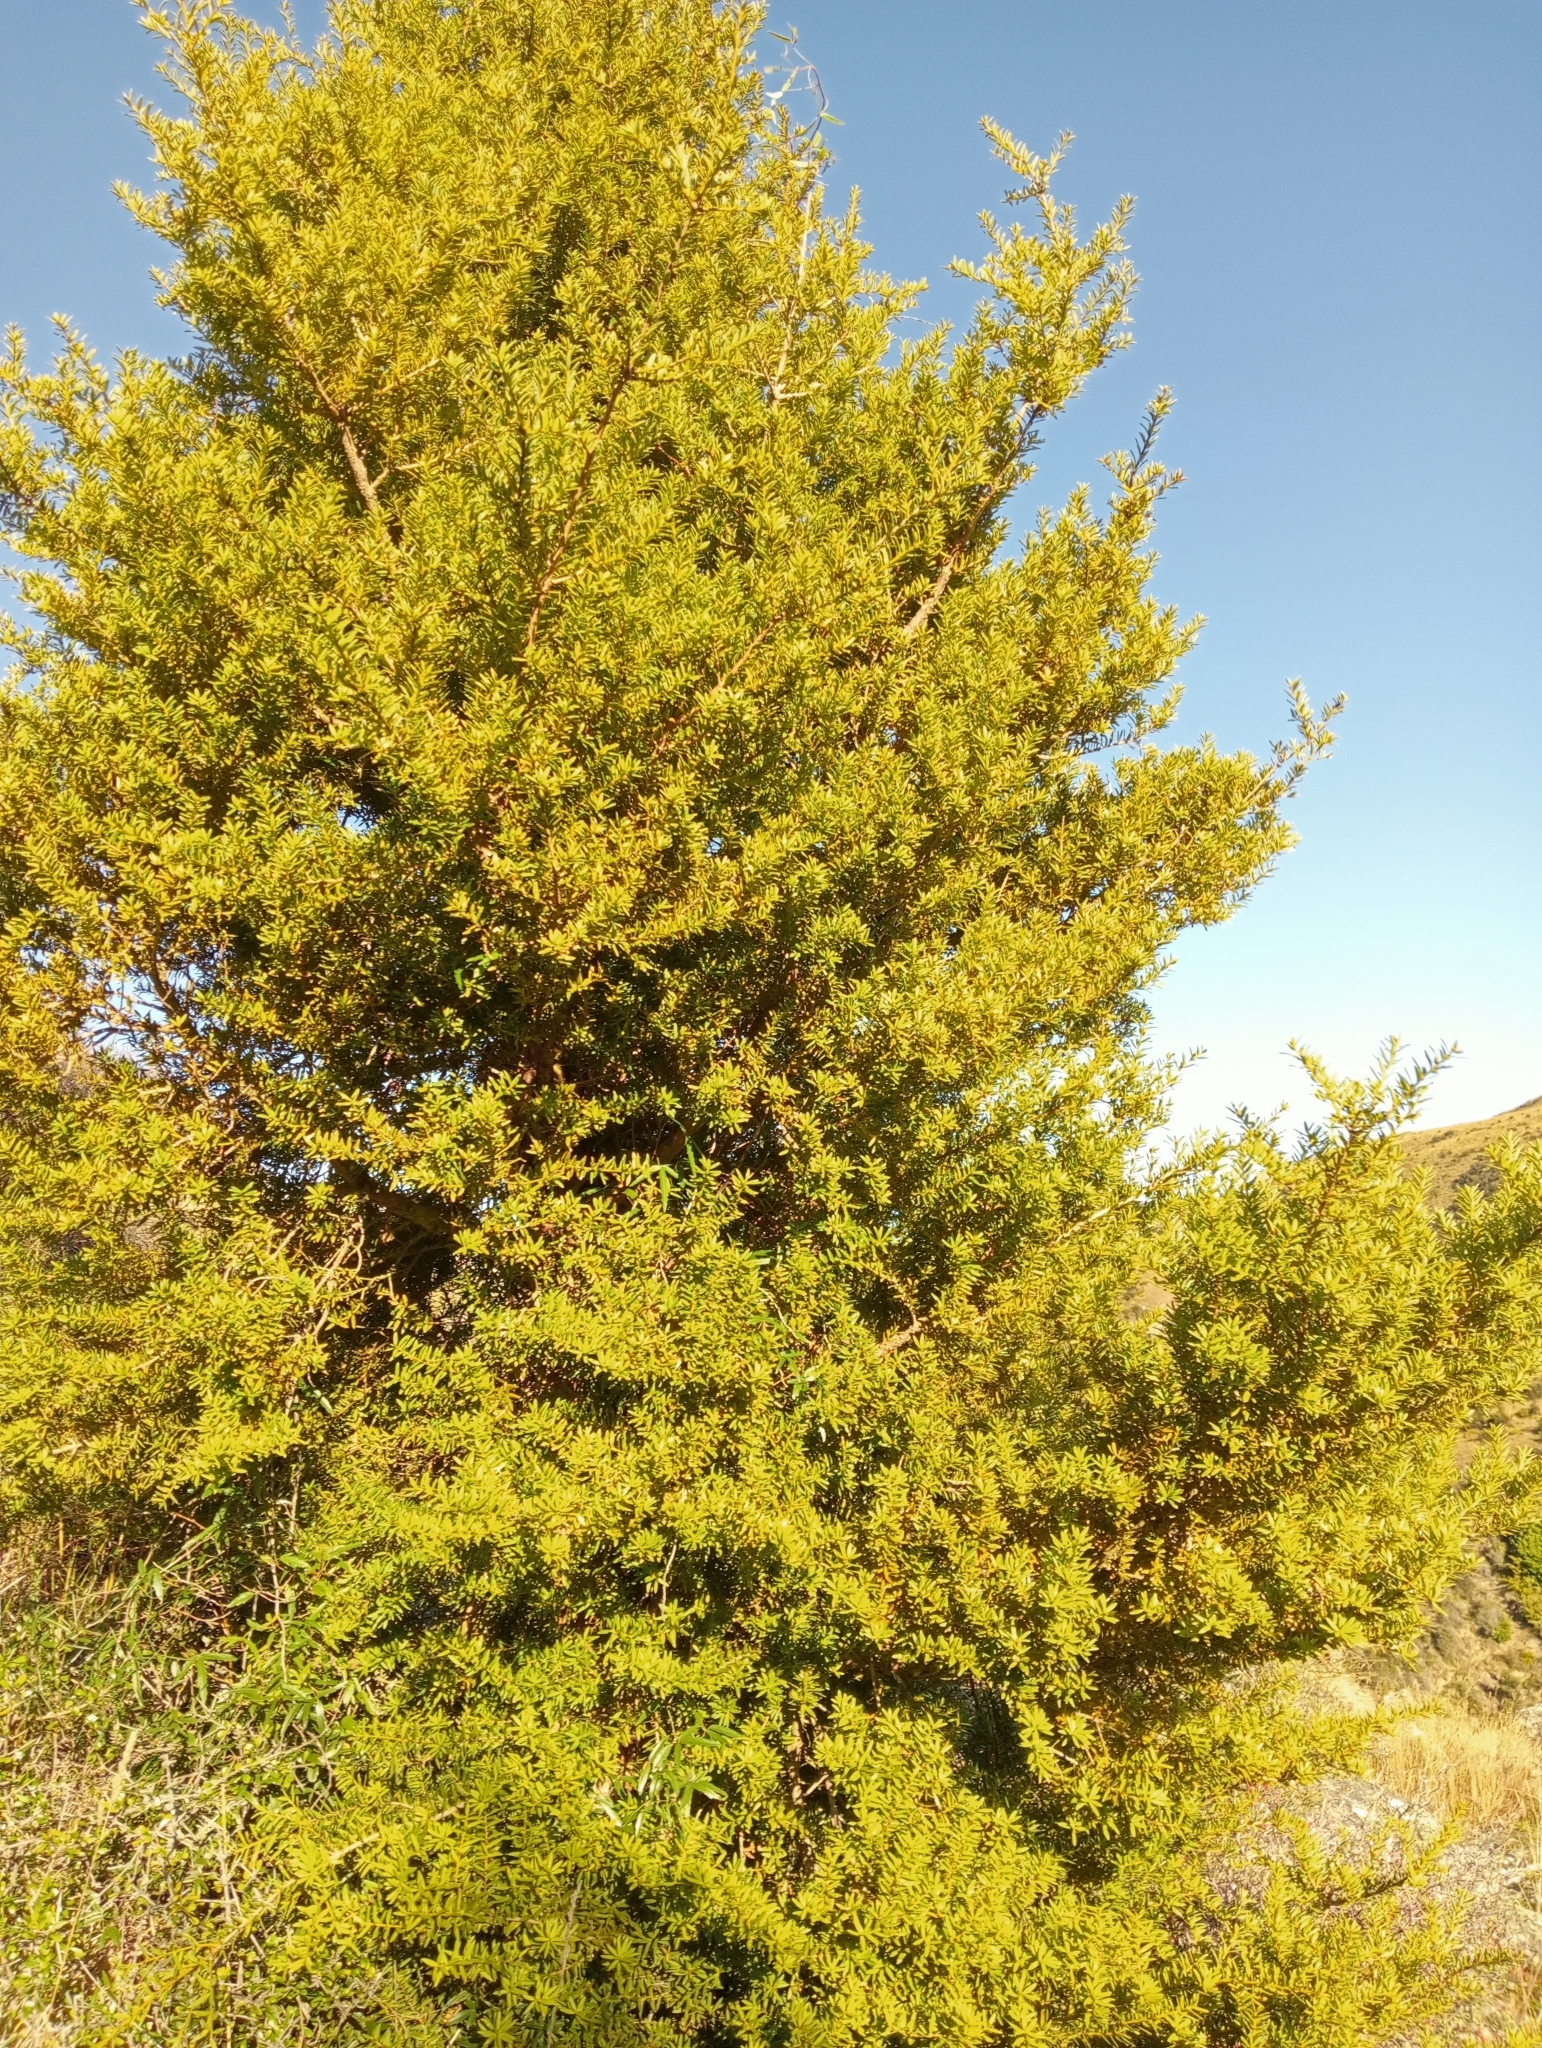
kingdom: Plantae
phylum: Tracheophyta
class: Pinopsida
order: Pinales
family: Podocarpaceae
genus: Podocarpus
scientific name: Podocarpus laetus
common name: Hall's totara
